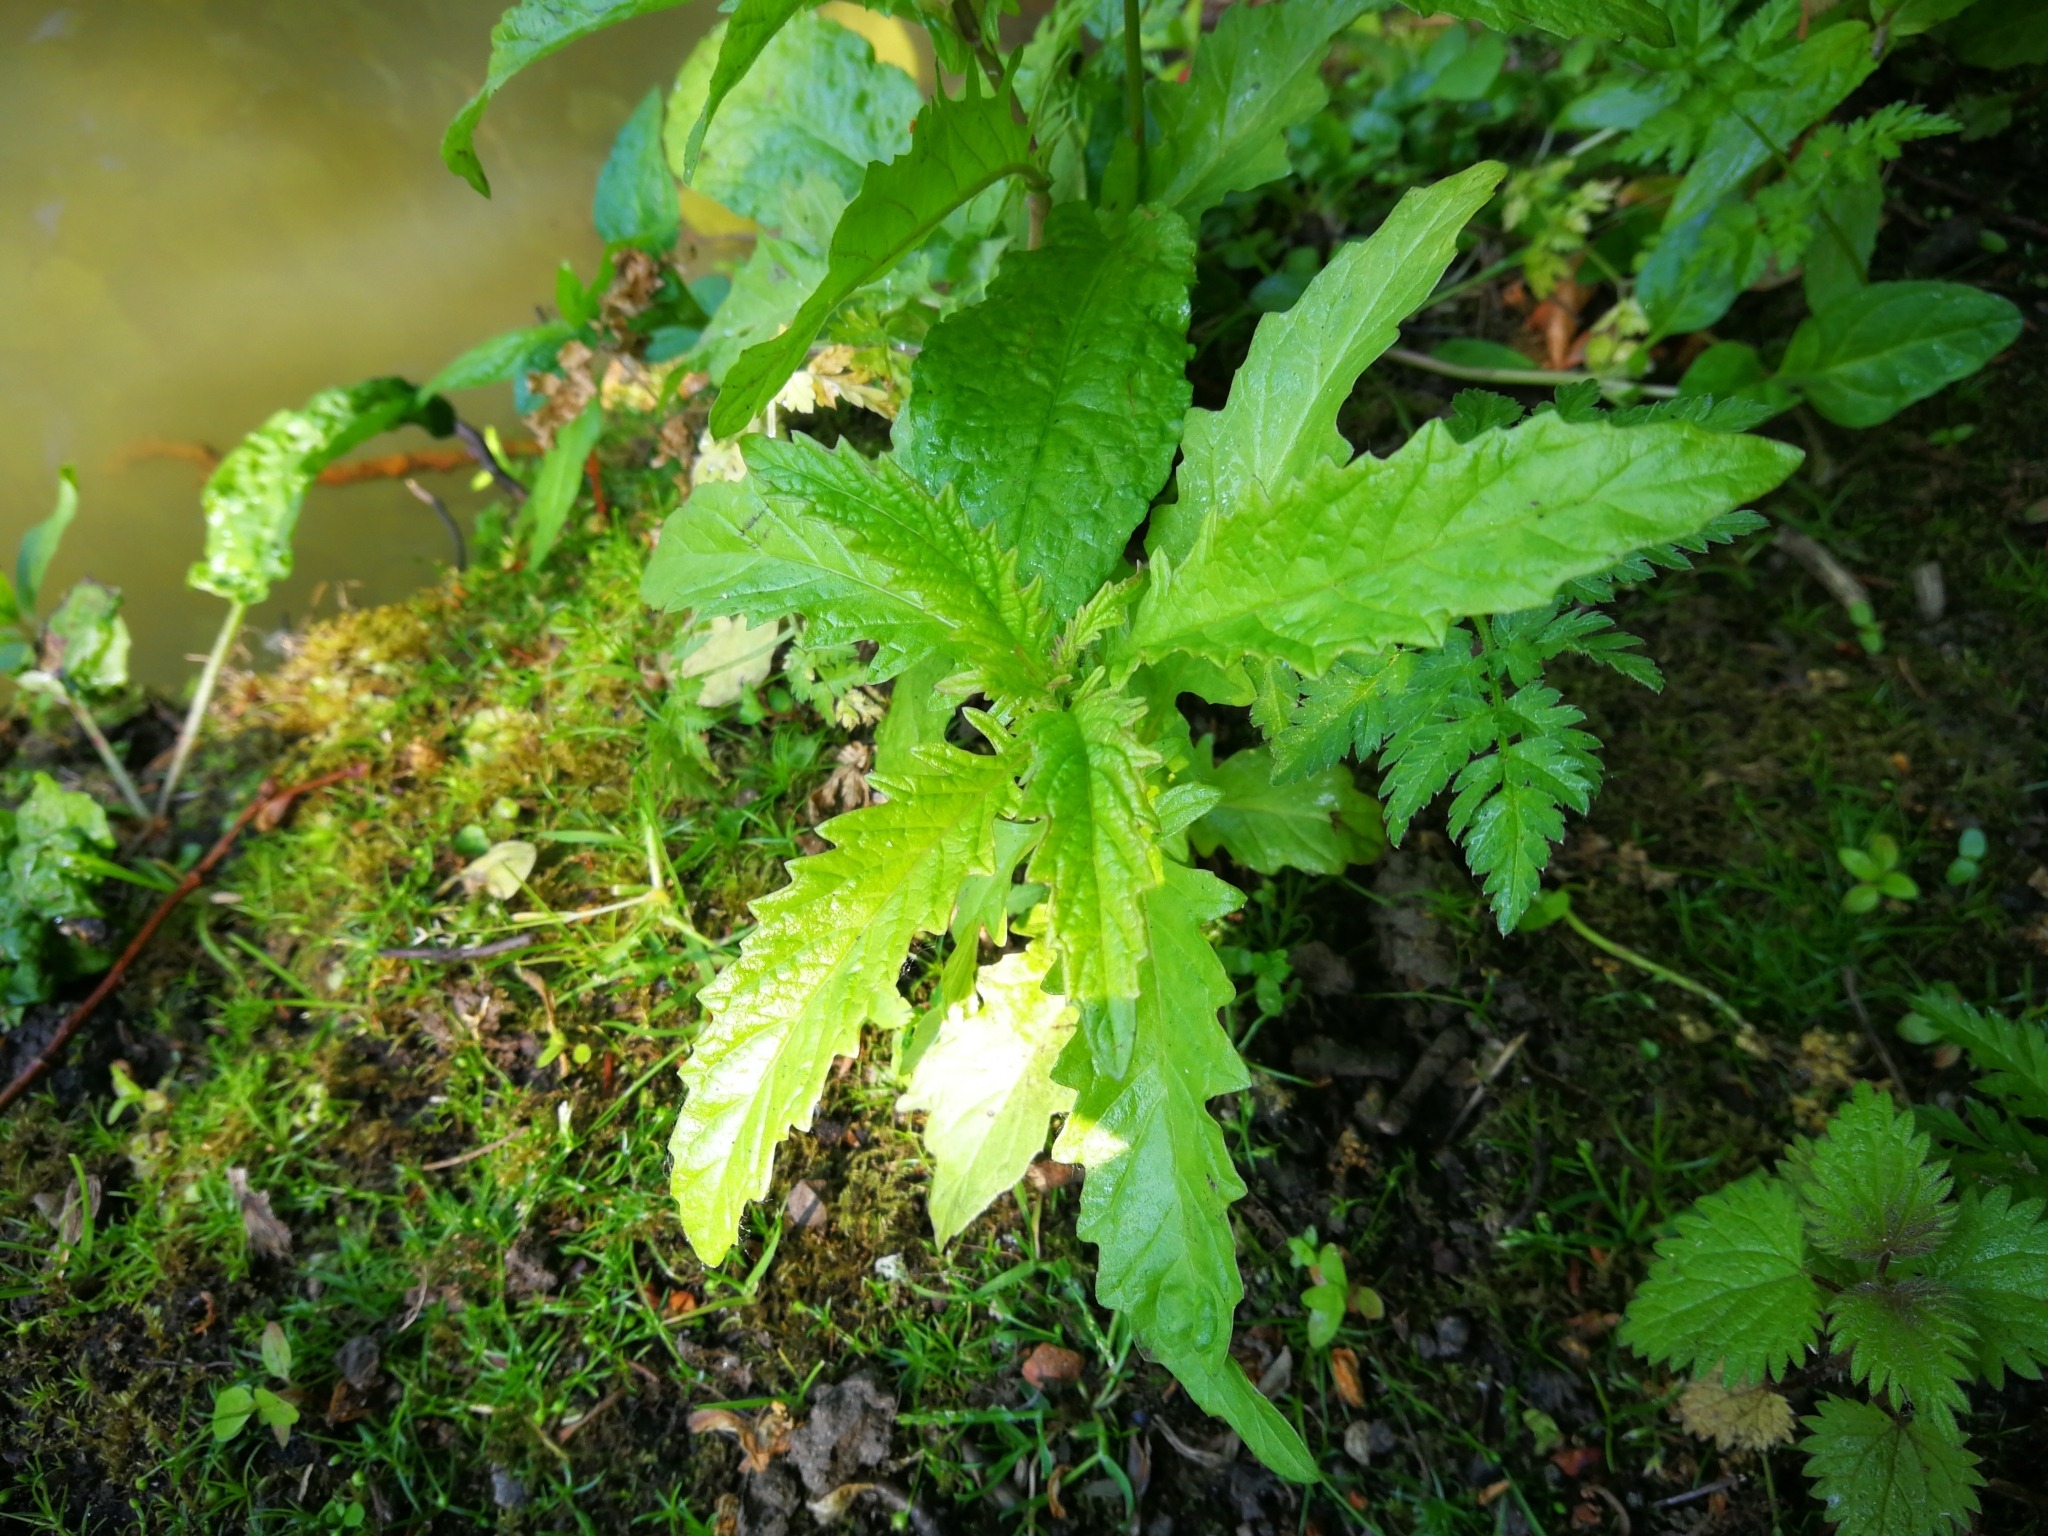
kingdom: Plantae
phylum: Tracheophyta
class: Magnoliopsida
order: Lamiales
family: Lamiaceae
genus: Lycopus
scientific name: Lycopus europaeus
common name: European bugleweed
